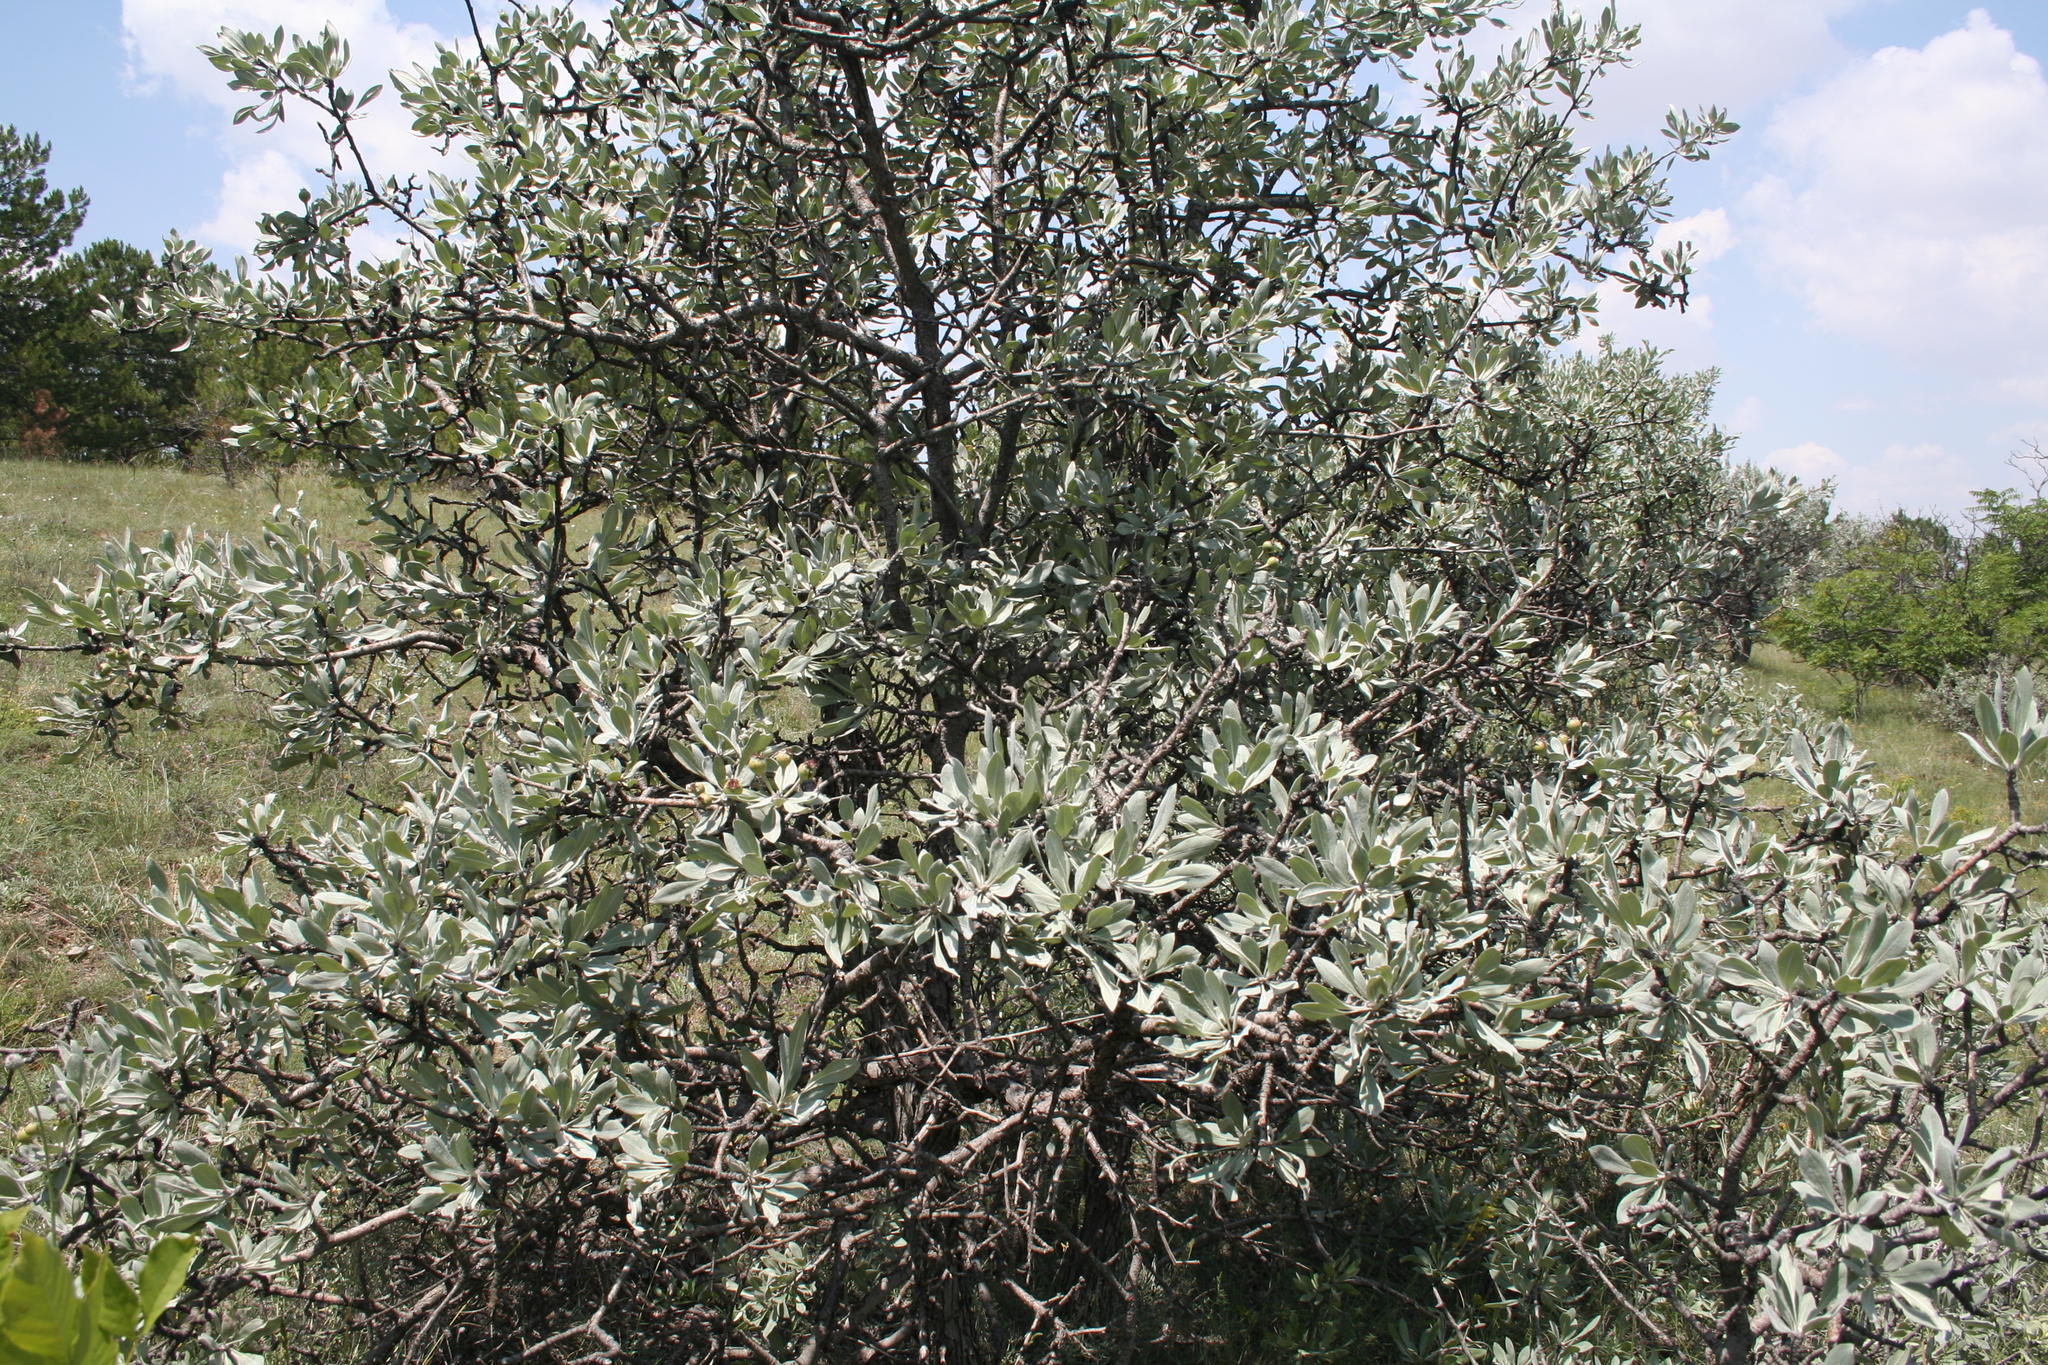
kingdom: Plantae
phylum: Tracheophyta
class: Magnoliopsida
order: Rosales
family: Rosaceae
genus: Pyrus
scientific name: Pyrus elaeagrifolia
